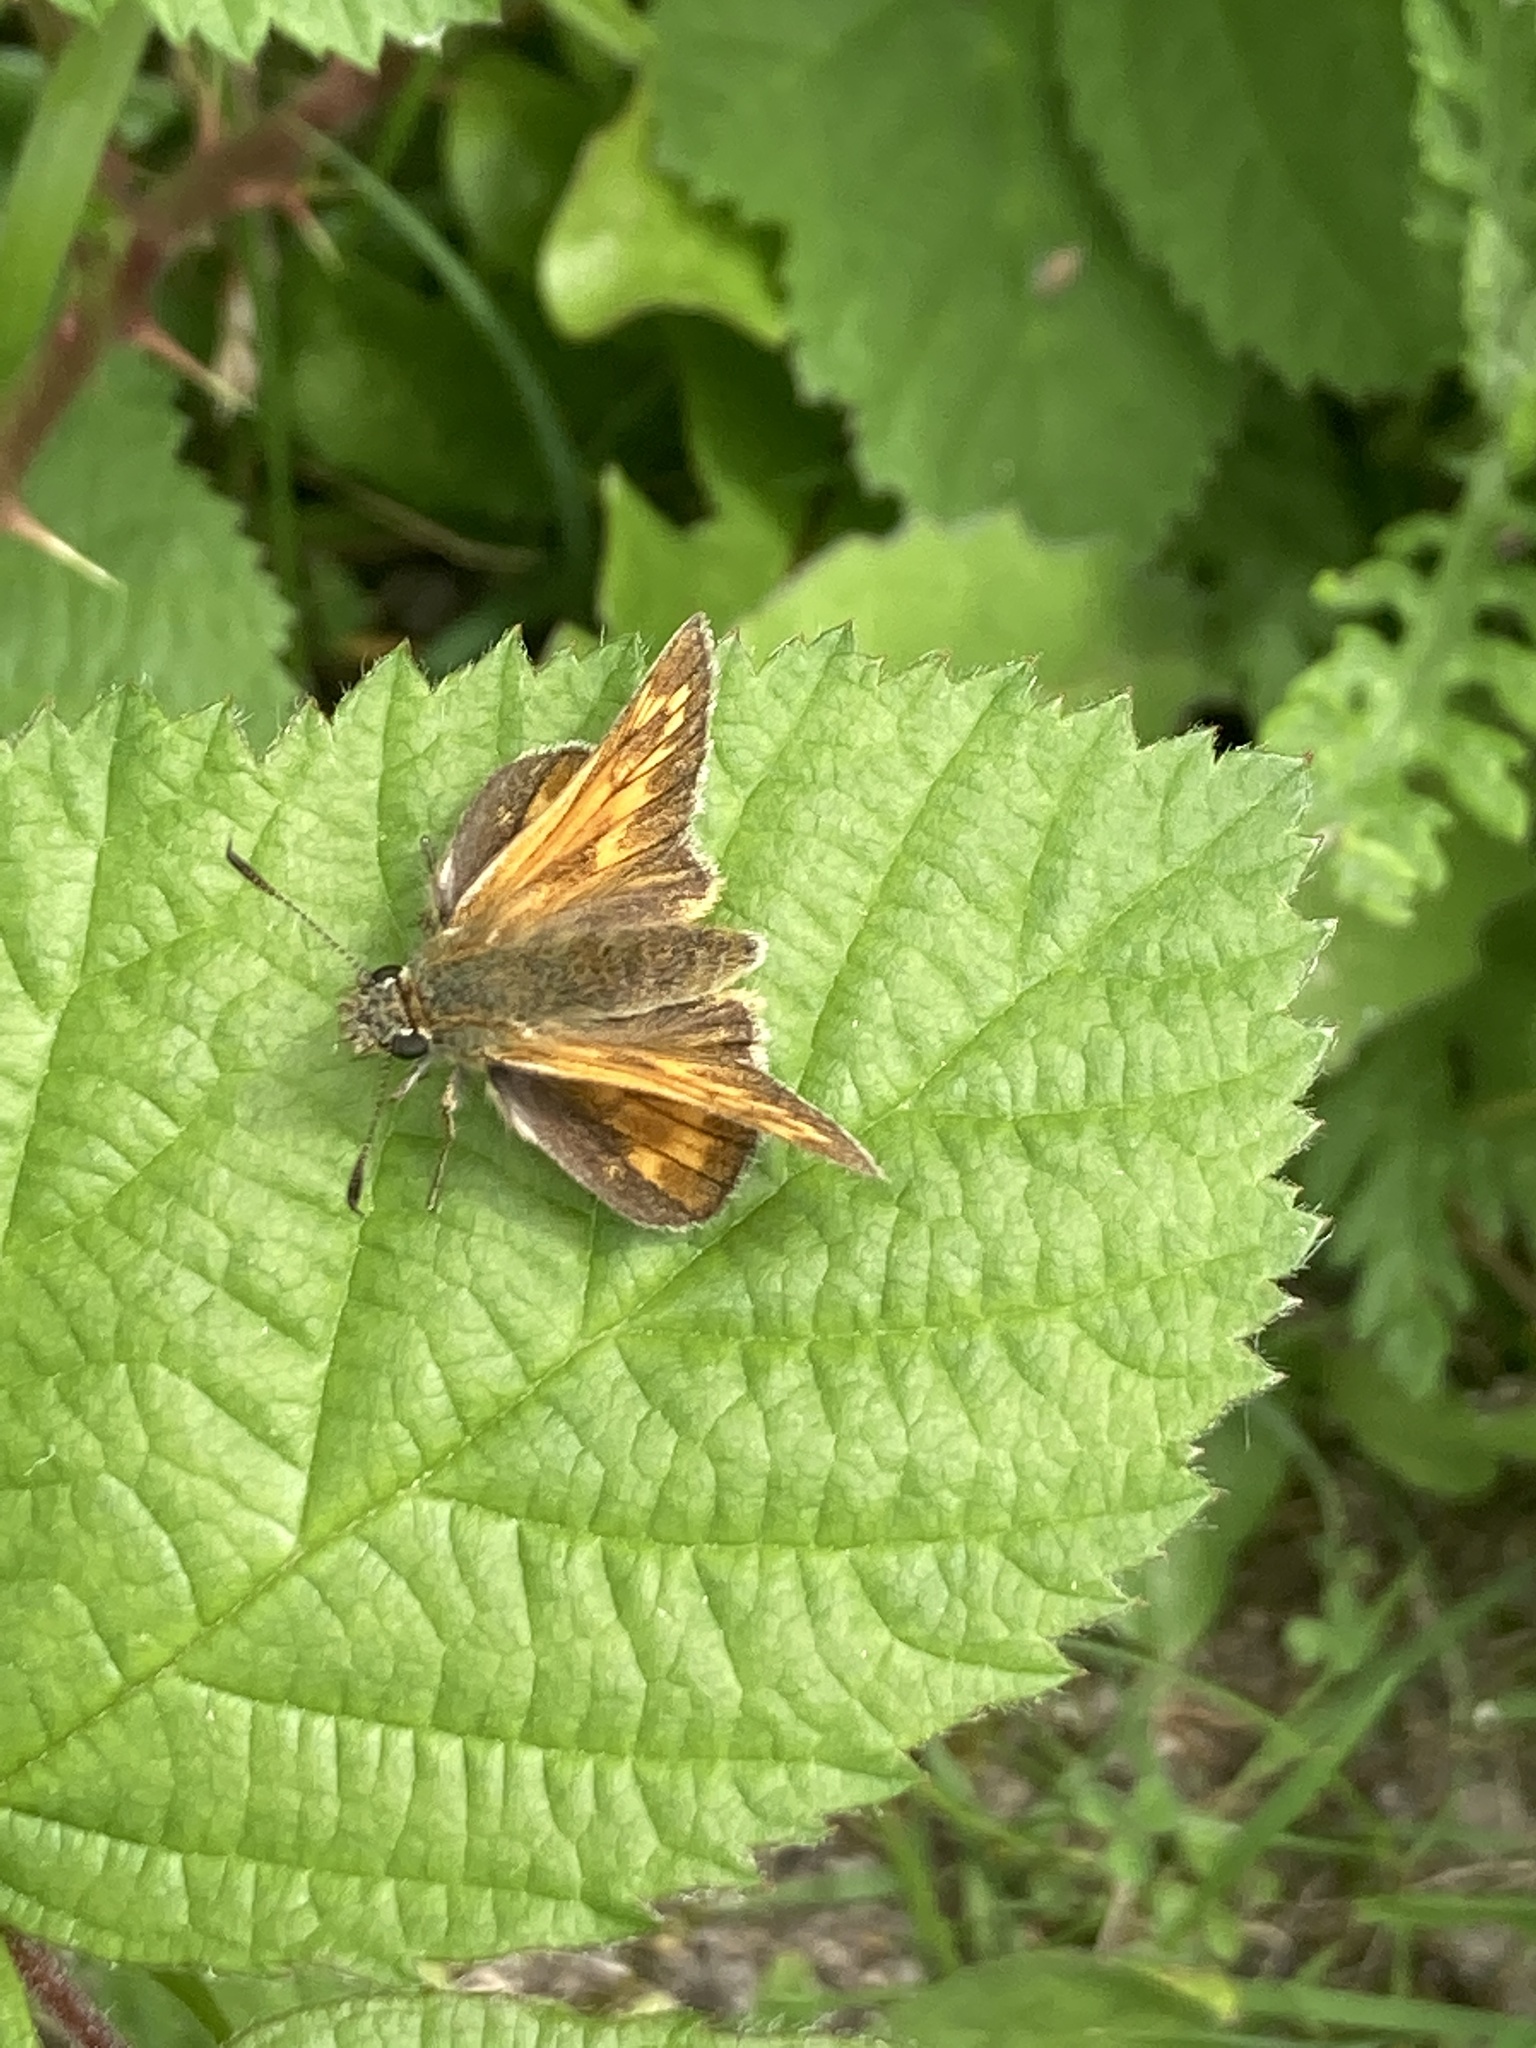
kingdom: Animalia
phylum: Arthropoda
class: Insecta
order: Lepidoptera
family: Hesperiidae
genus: Ochlodes
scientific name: Ochlodes venata
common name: Large skipper
